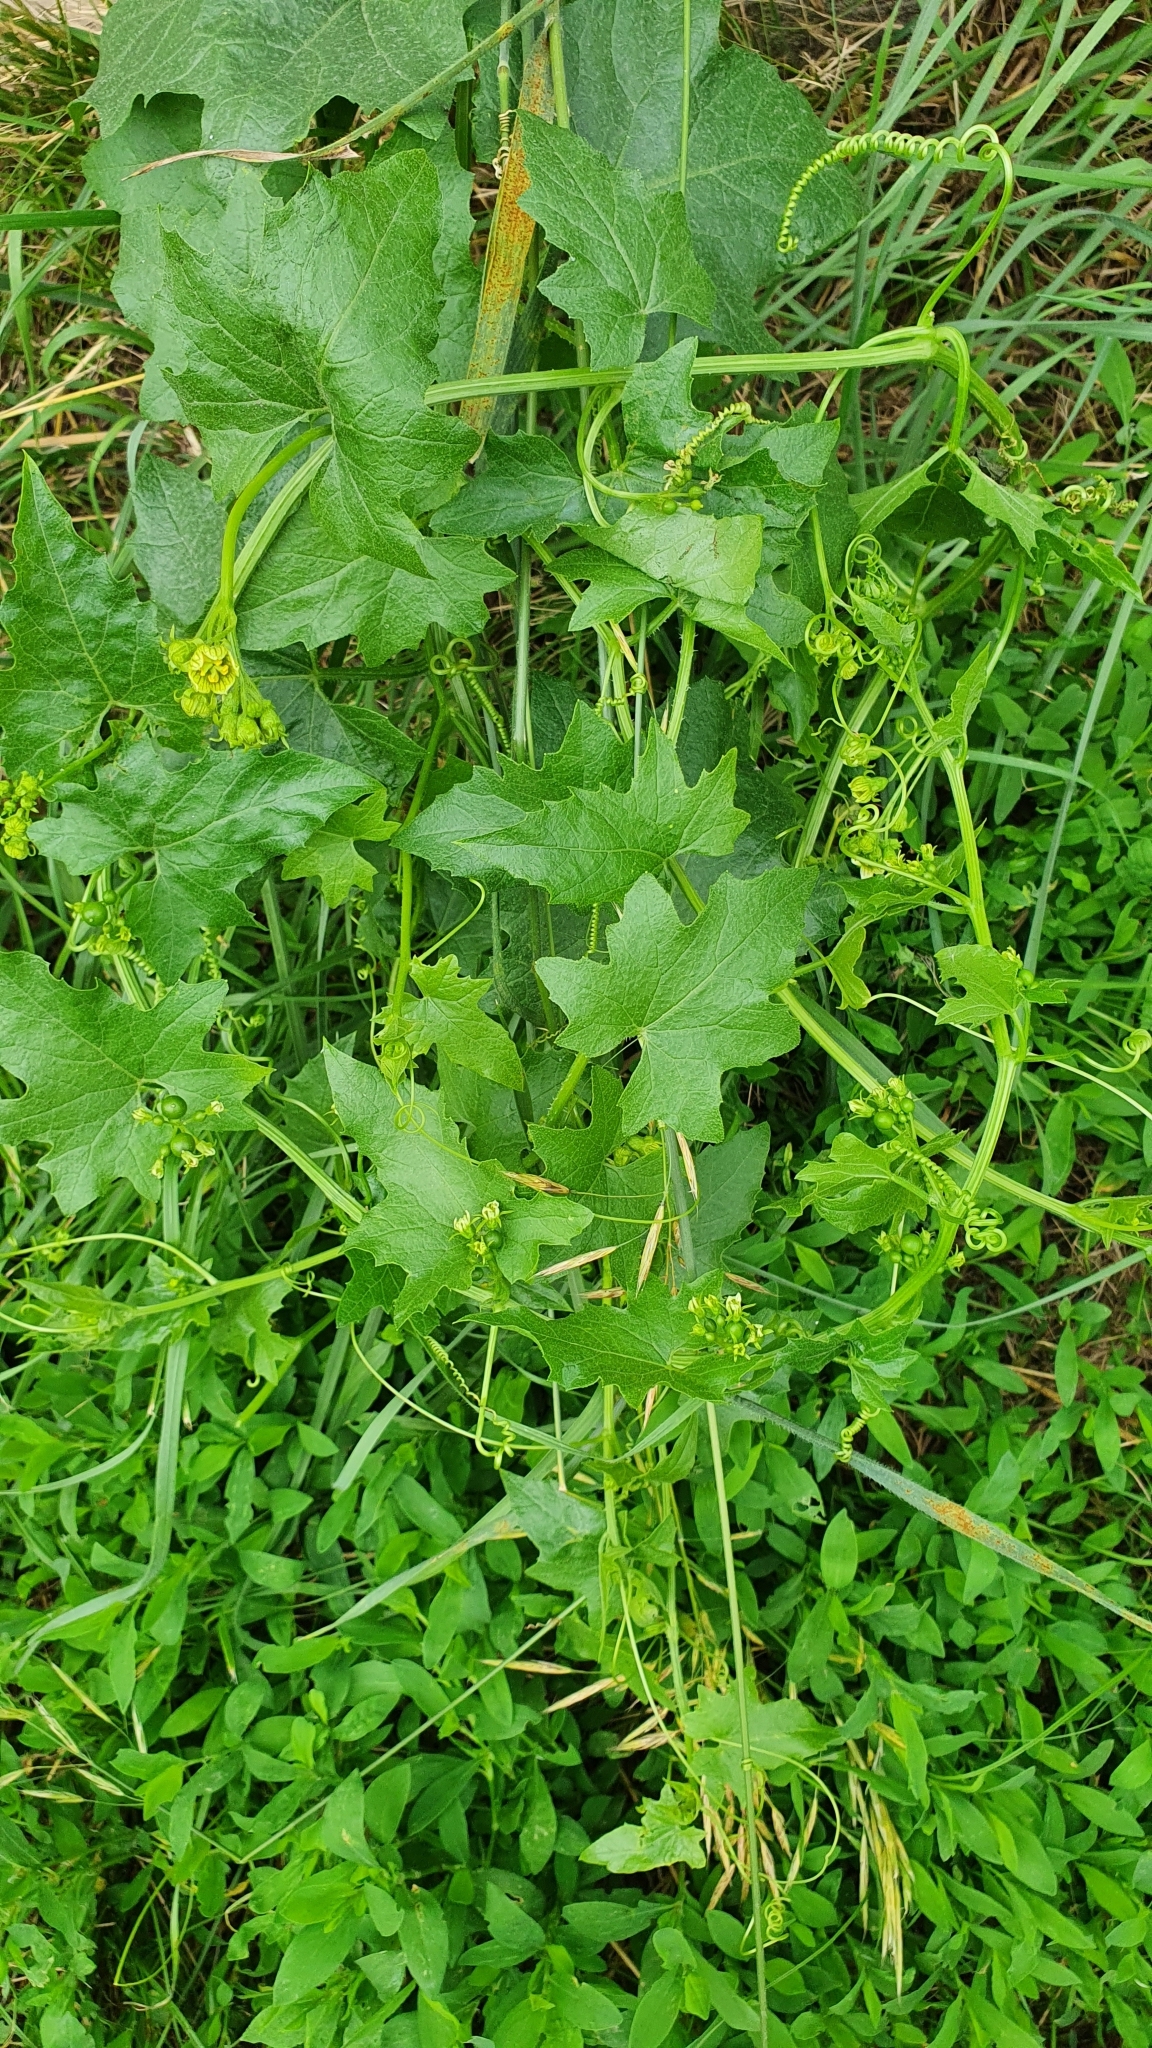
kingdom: Plantae
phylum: Tracheophyta
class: Magnoliopsida
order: Cucurbitales
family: Cucurbitaceae
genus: Bryonia
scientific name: Bryonia alba
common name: White bryony
